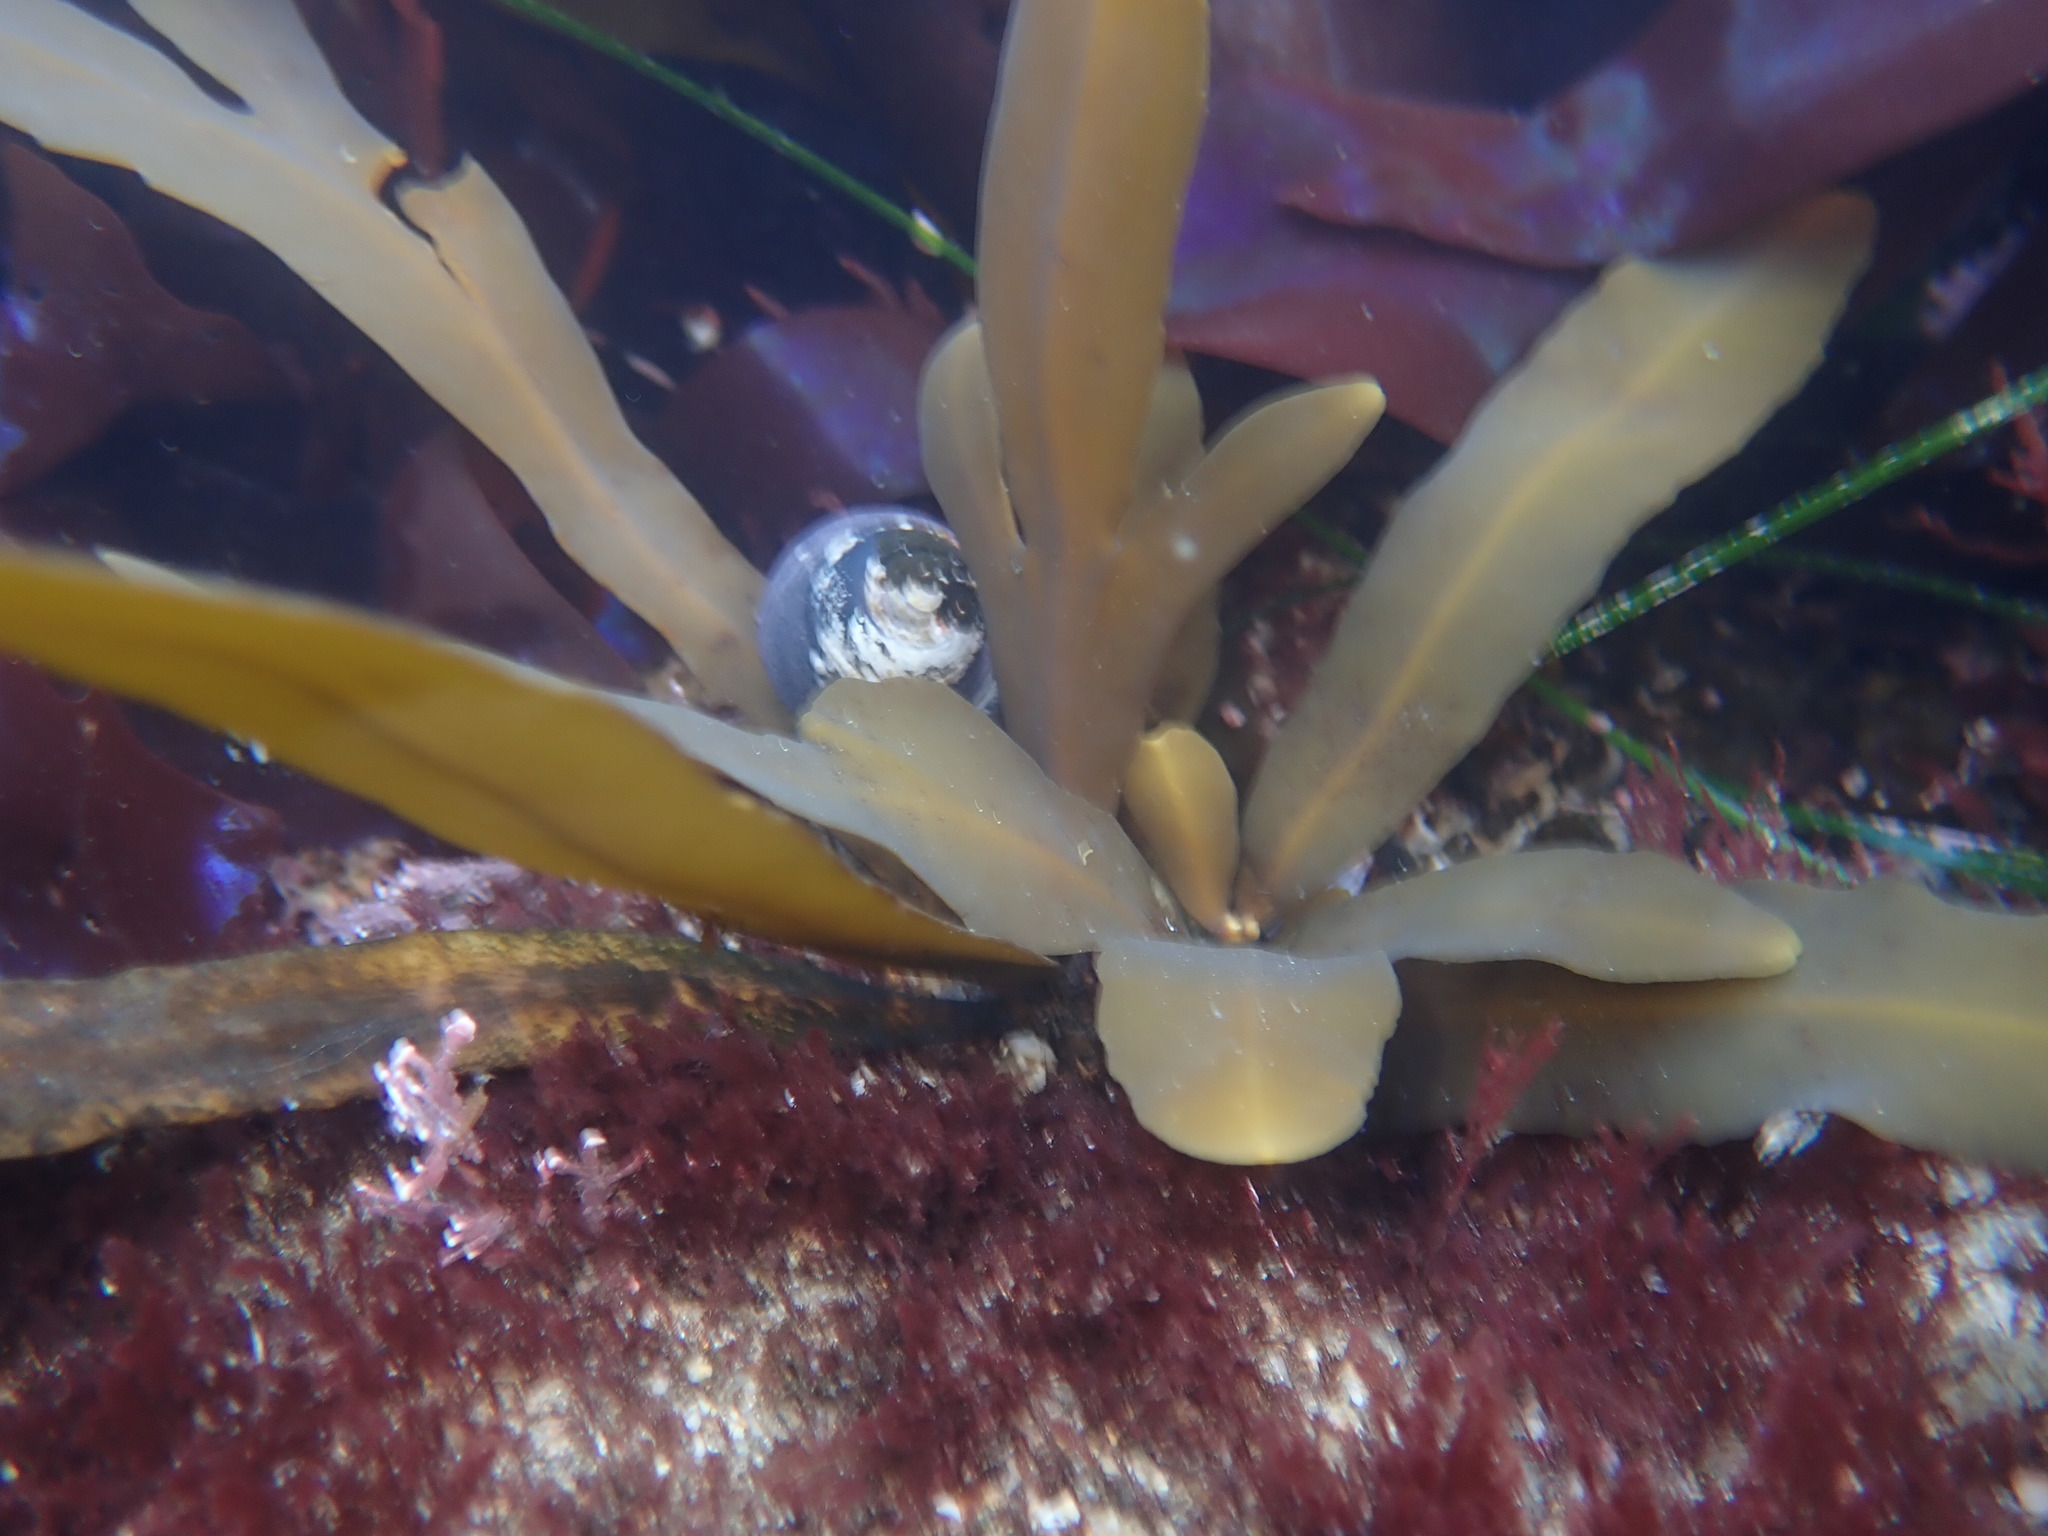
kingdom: Chromista
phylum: Ochrophyta
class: Phaeophyceae
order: Fucales
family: Sargassaceae
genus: Stephanocystis
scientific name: Stephanocystis
